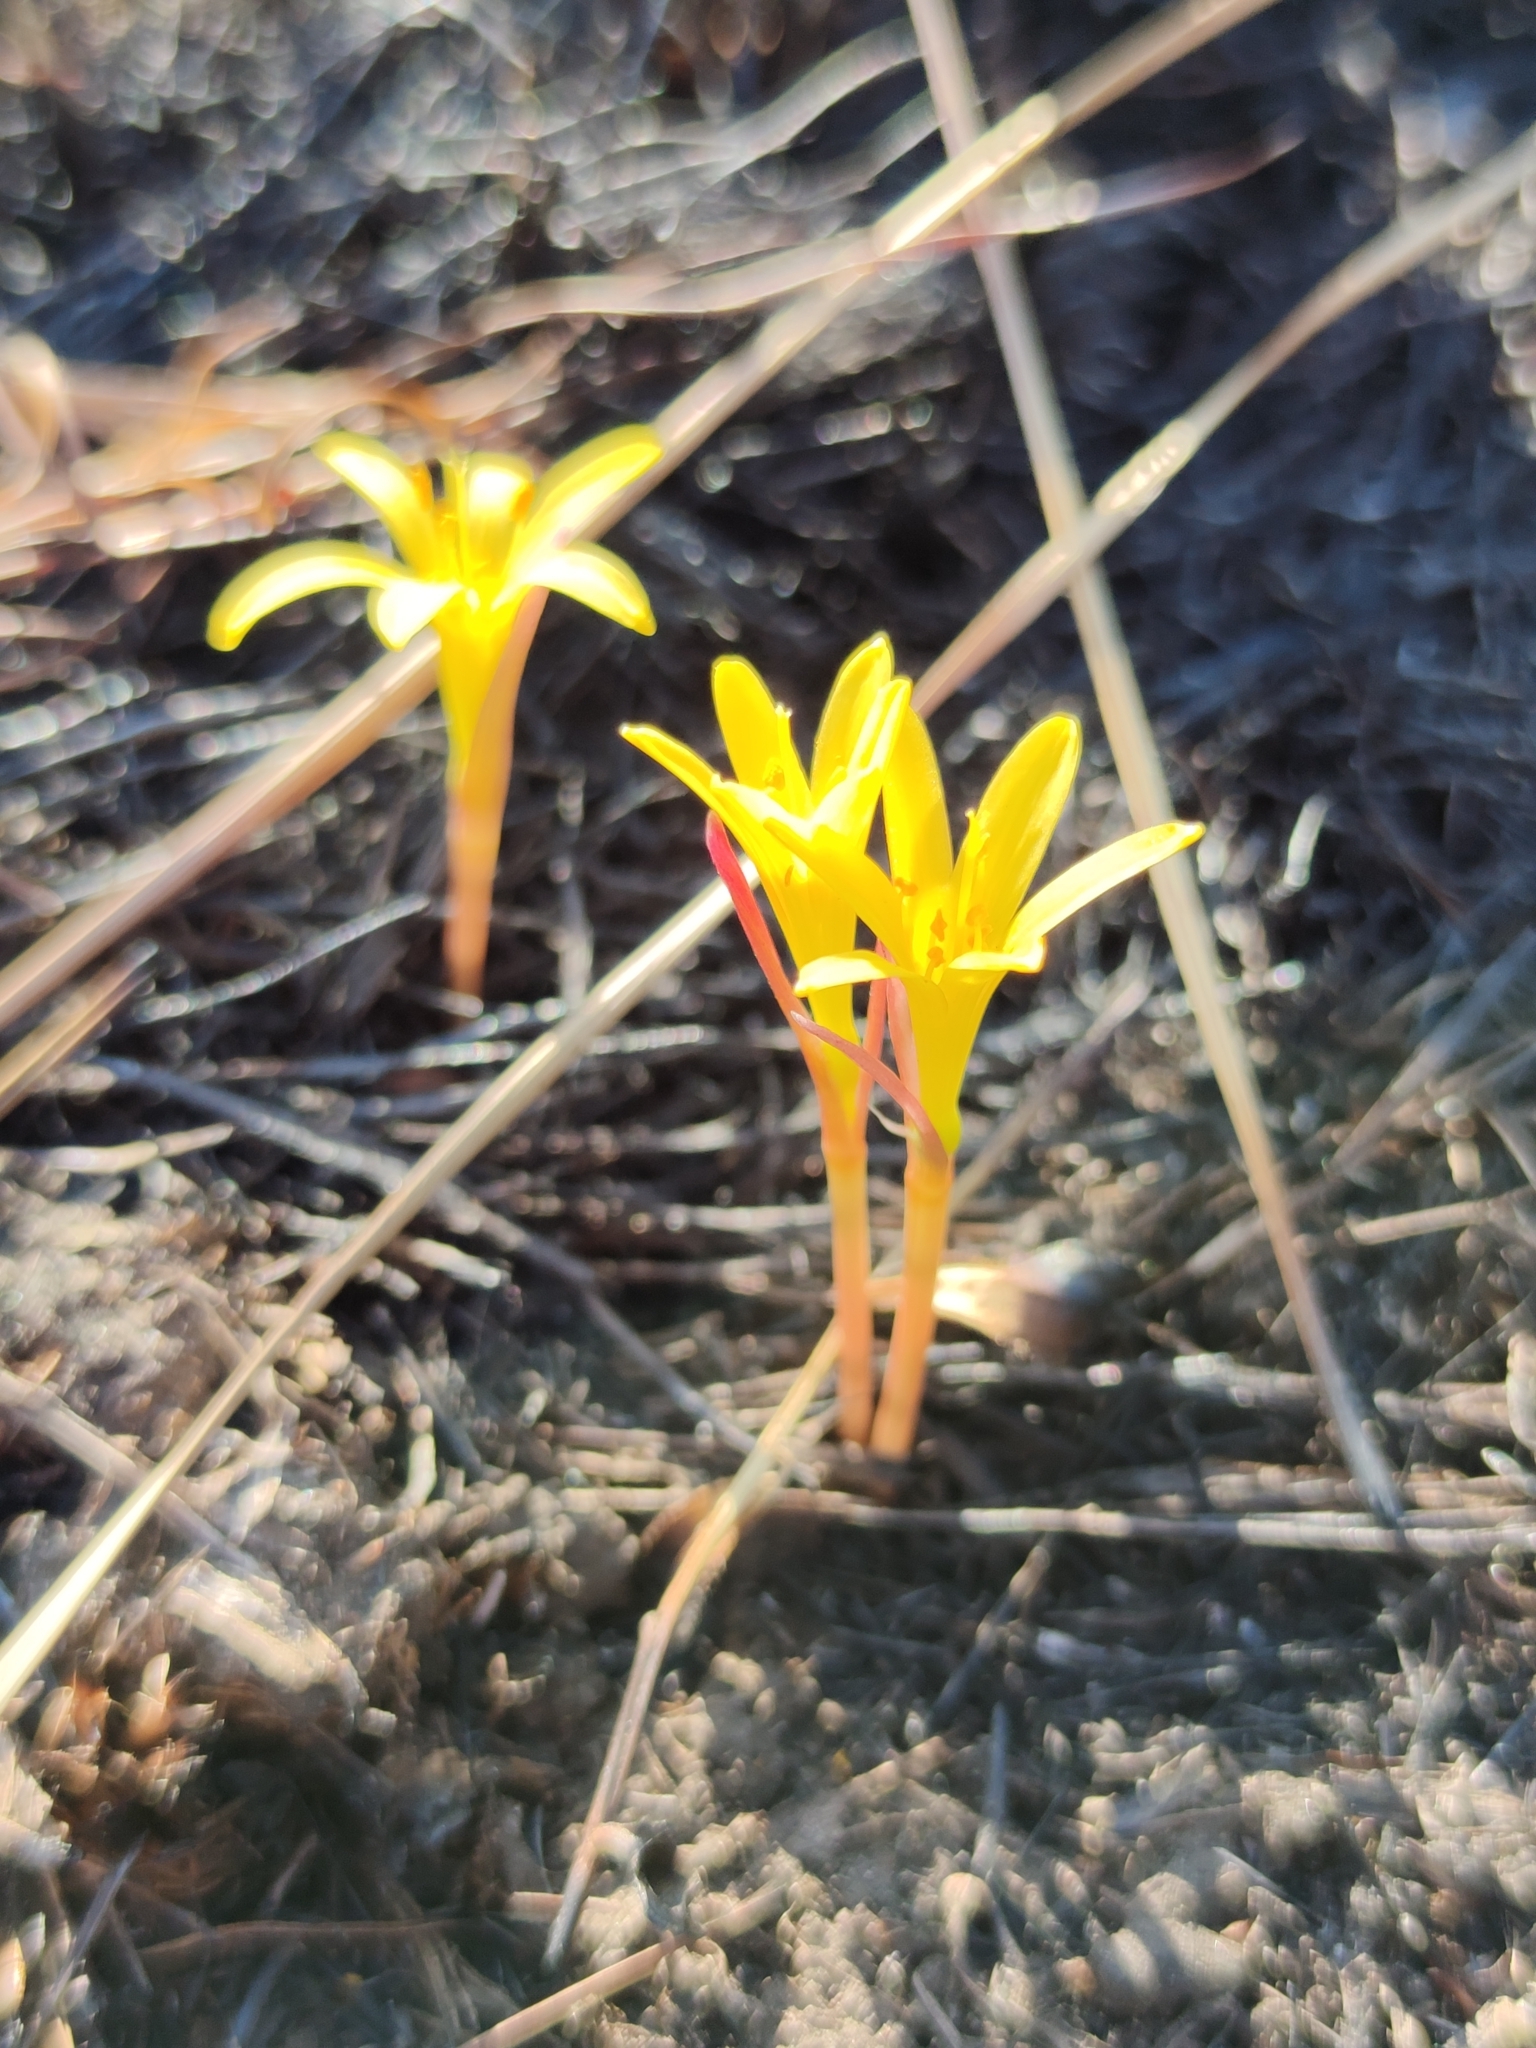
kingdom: Plantae
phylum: Tracheophyta
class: Liliopsida
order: Asparagales
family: Amaryllidaceae
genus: Cyrtanthus
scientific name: Cyrtanthus breviflorus
